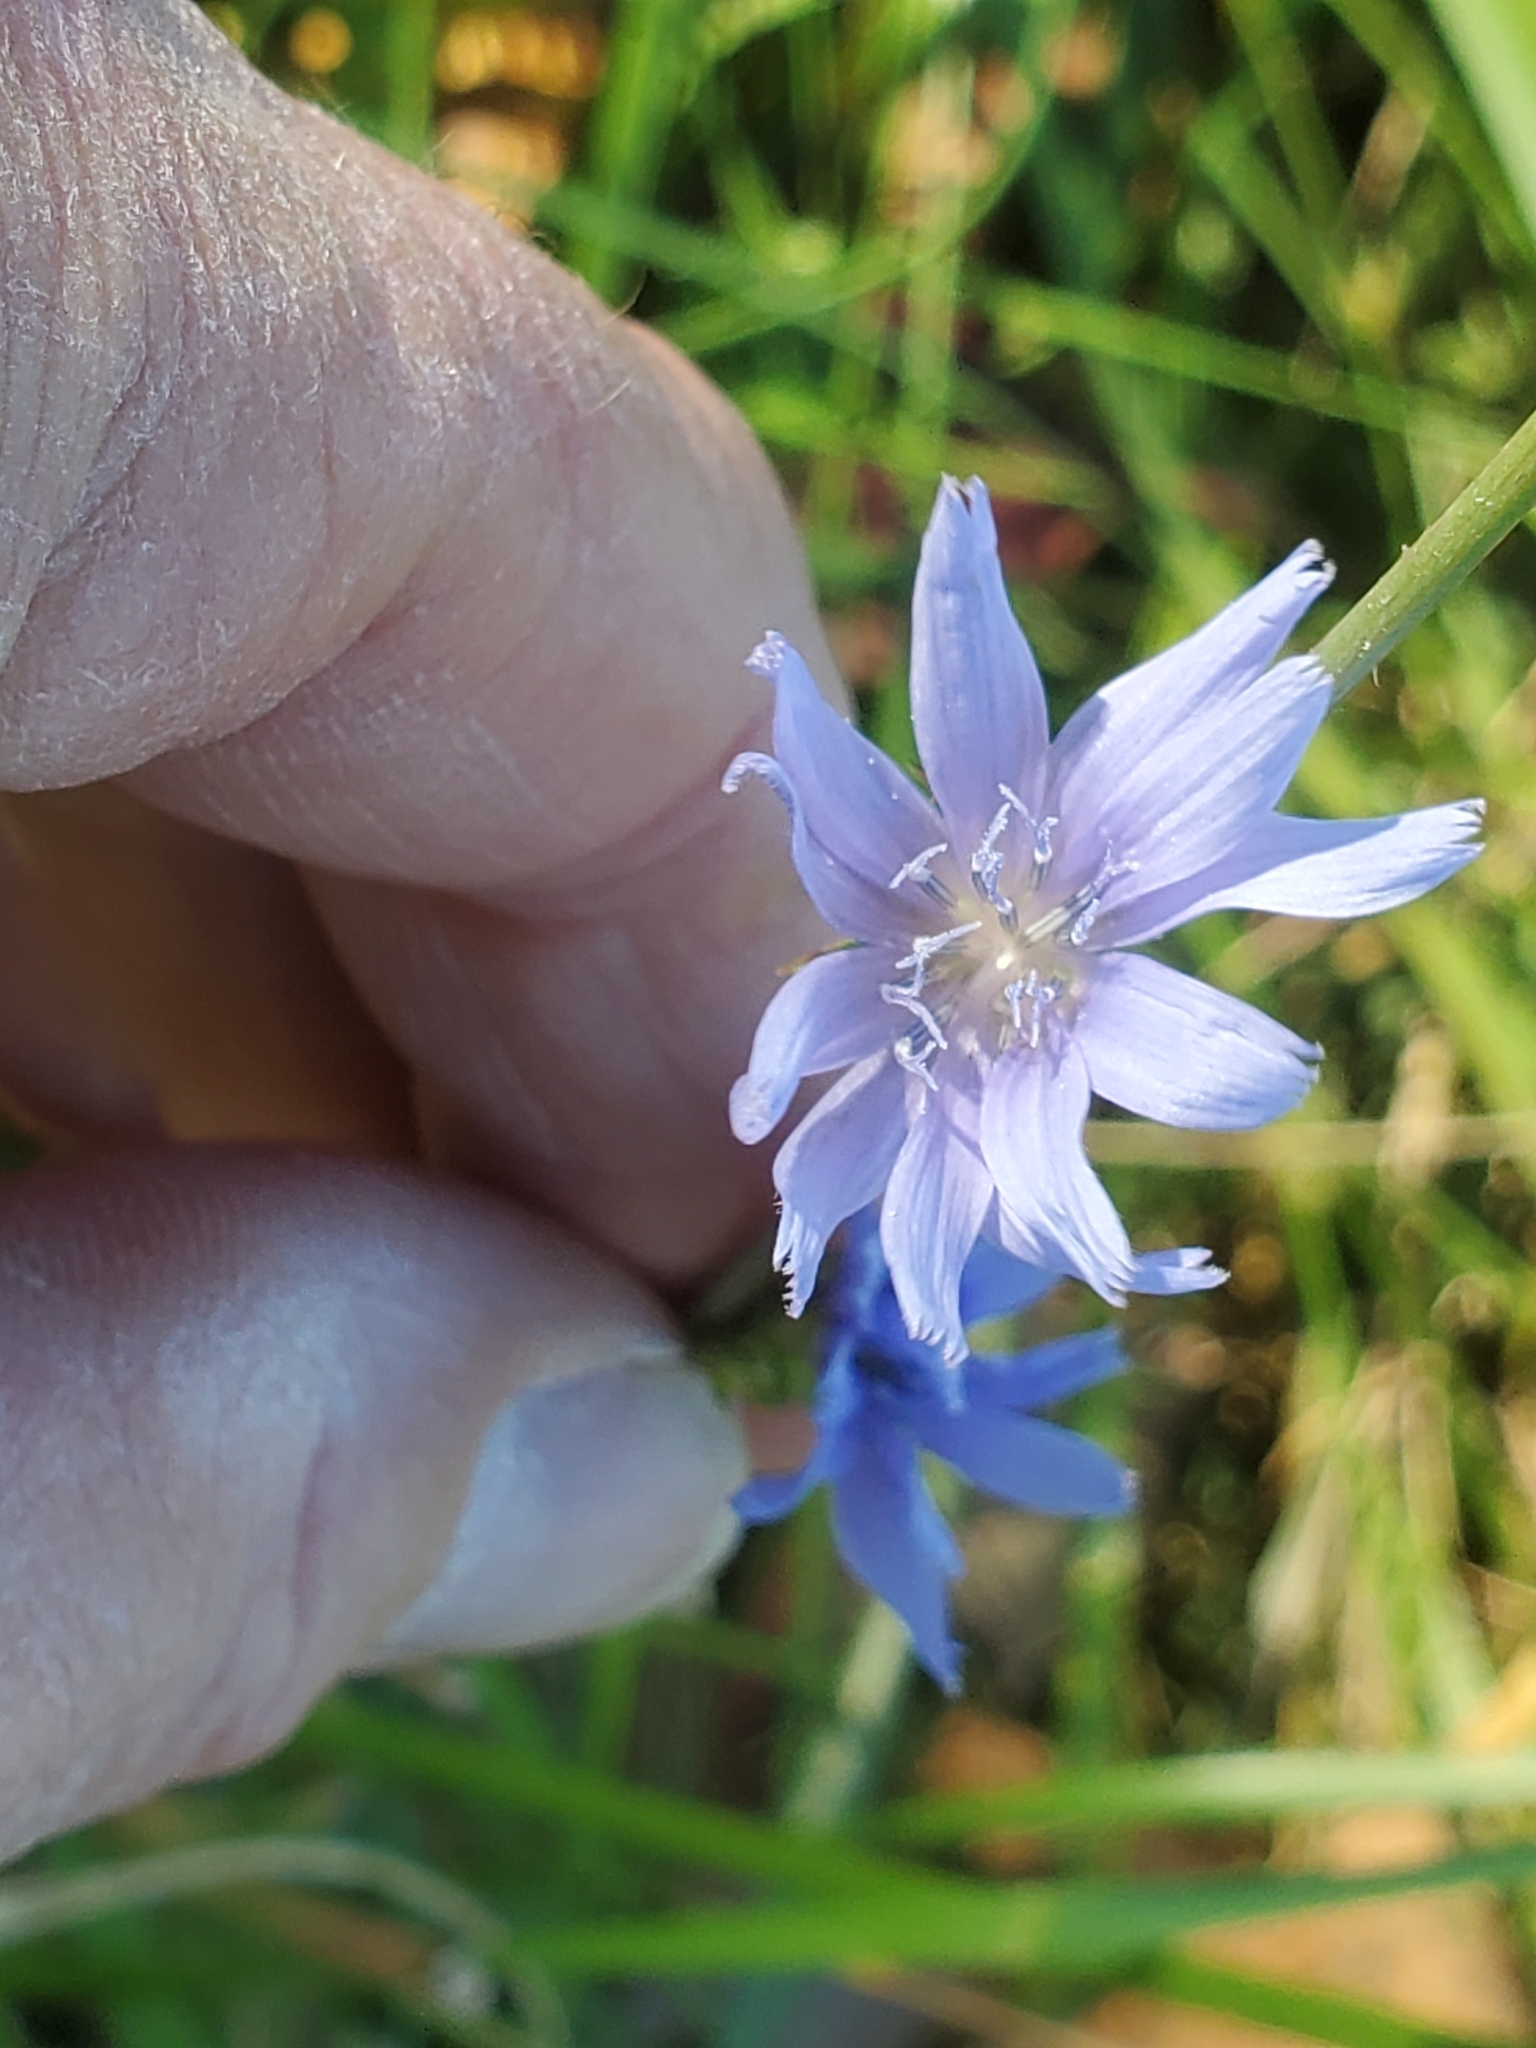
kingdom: Plantae
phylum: Tracheophyta
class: Magnoliopsida
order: Asterales
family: Asteraceae
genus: Cichorium
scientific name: Cichorium intybus
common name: Chicory
